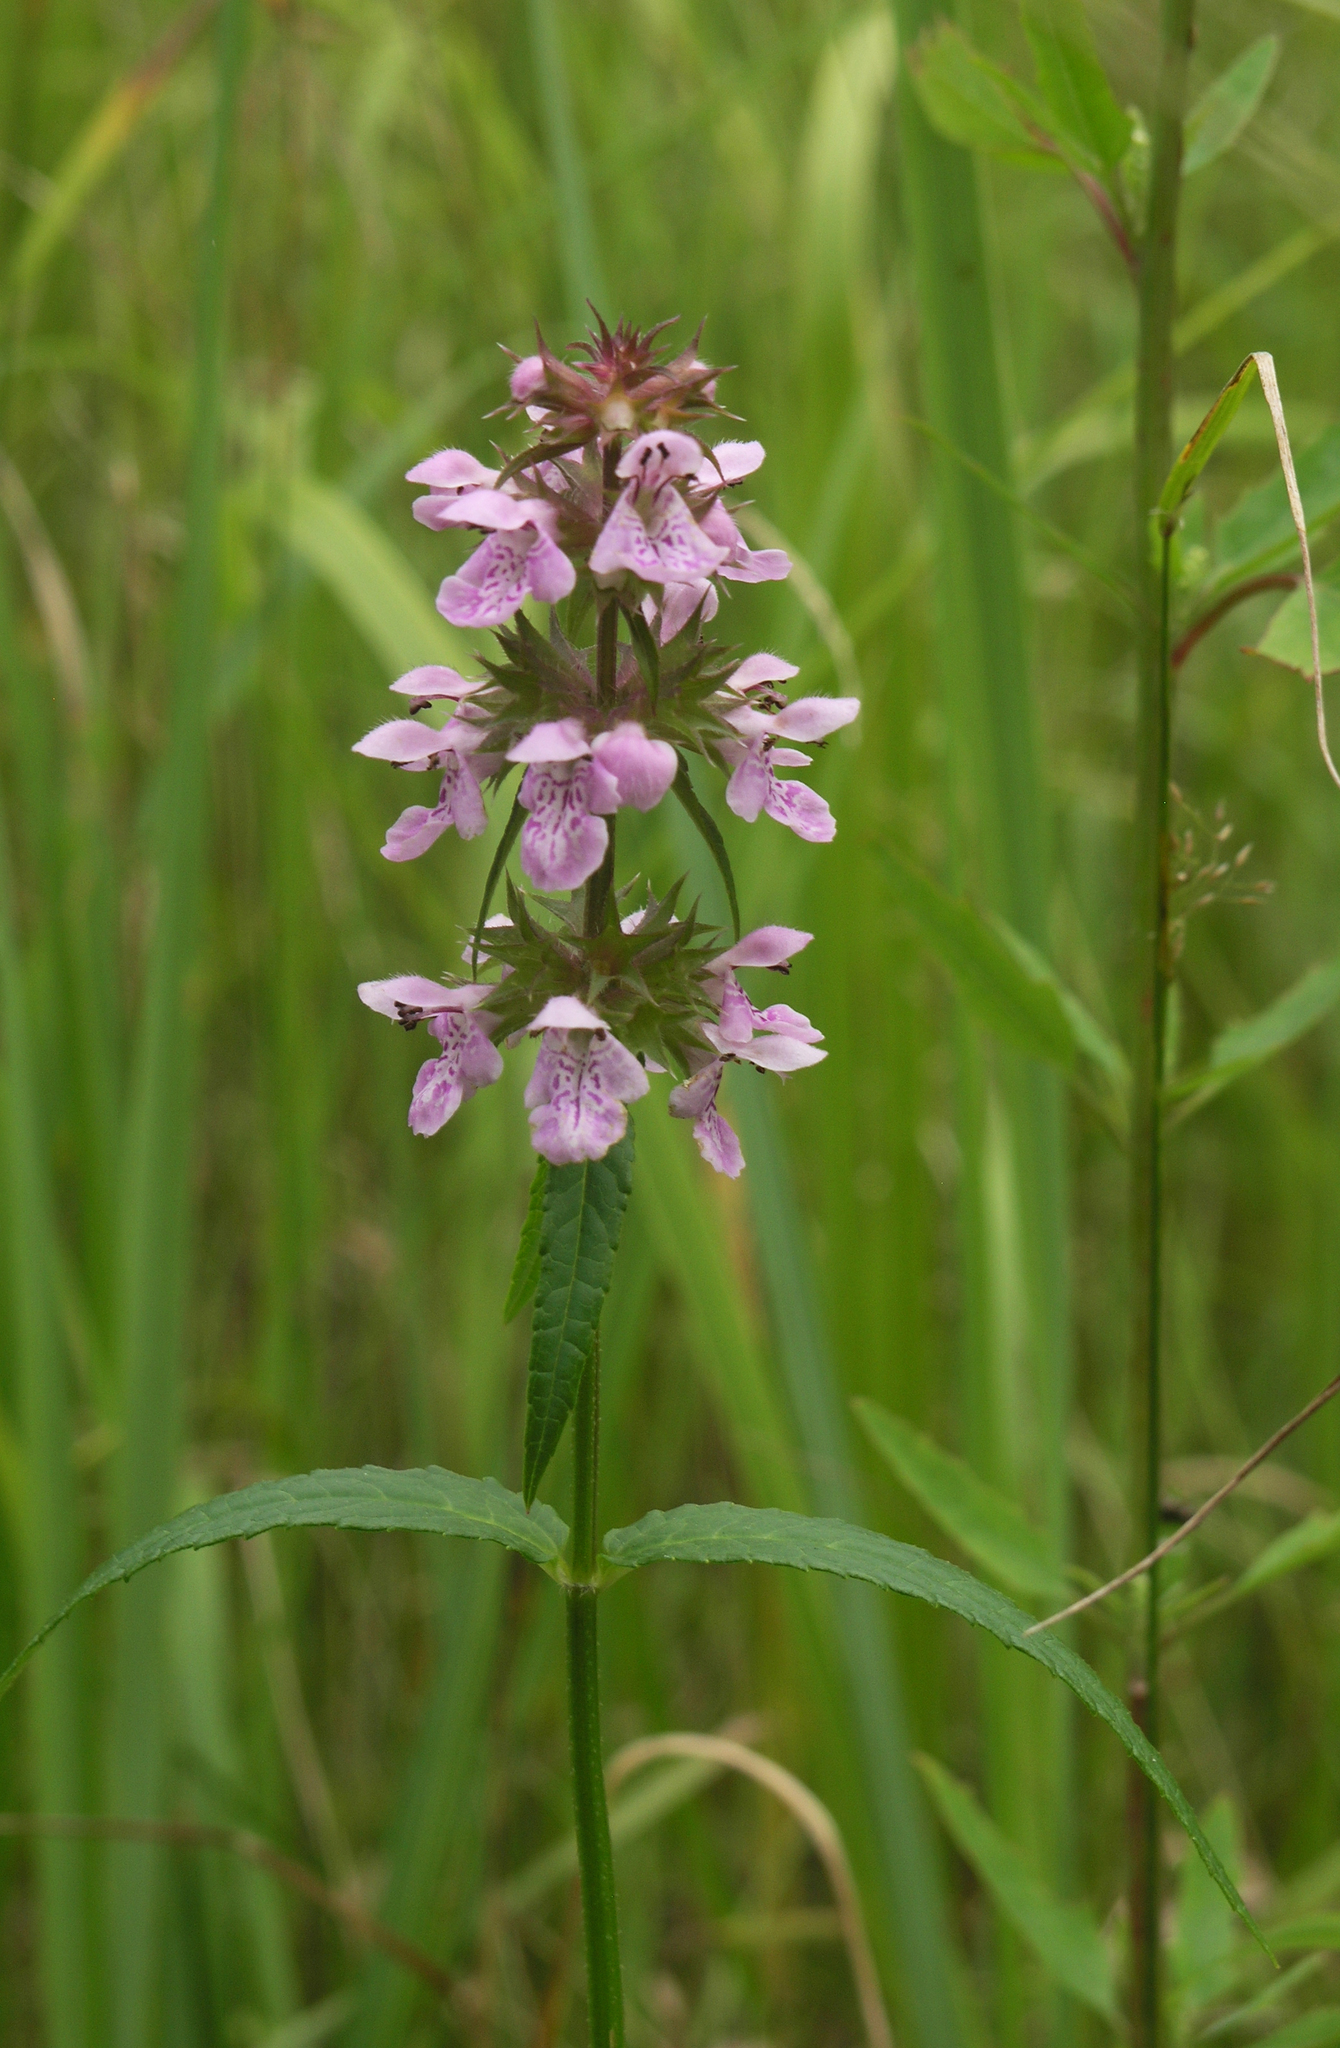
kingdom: Plantae
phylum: Tracheophyta
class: Magnoliopsida
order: Lamiales
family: Lamiaceae
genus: Stachys
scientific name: Stachys aspera
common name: Hyssopleaf hedgenettle
